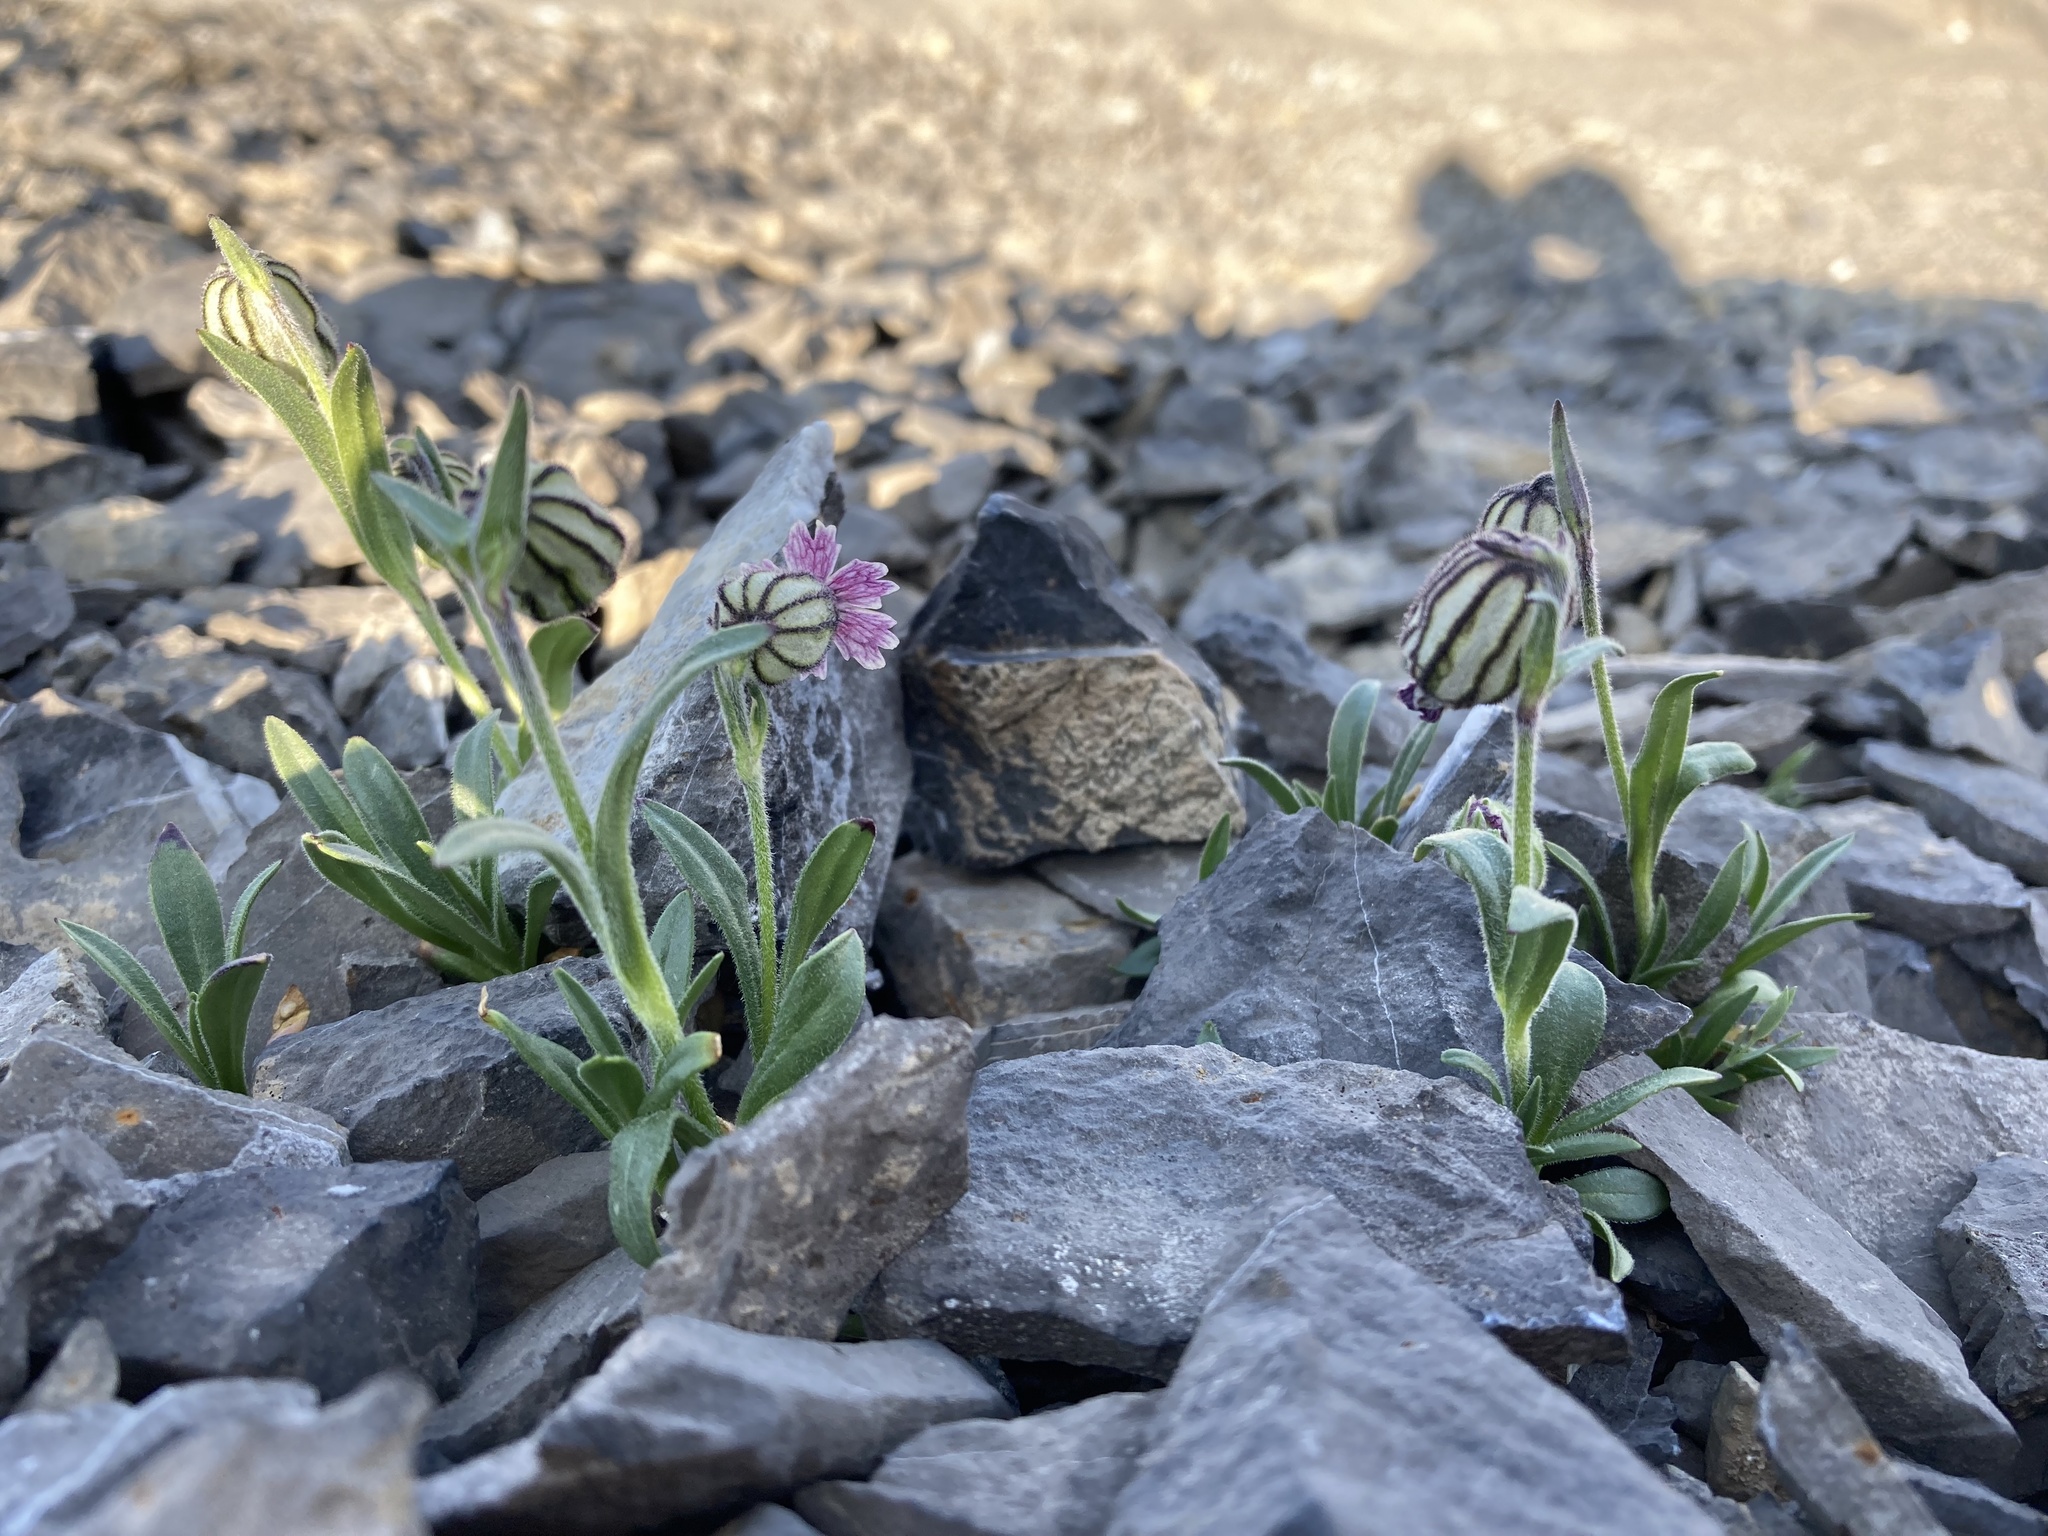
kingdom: Plantae
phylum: Tracheophyta
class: Magnoliopsida
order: Caryophyllales
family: Caryophyllaceae
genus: Silene
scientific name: Silene uralensis
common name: Nodding campion
